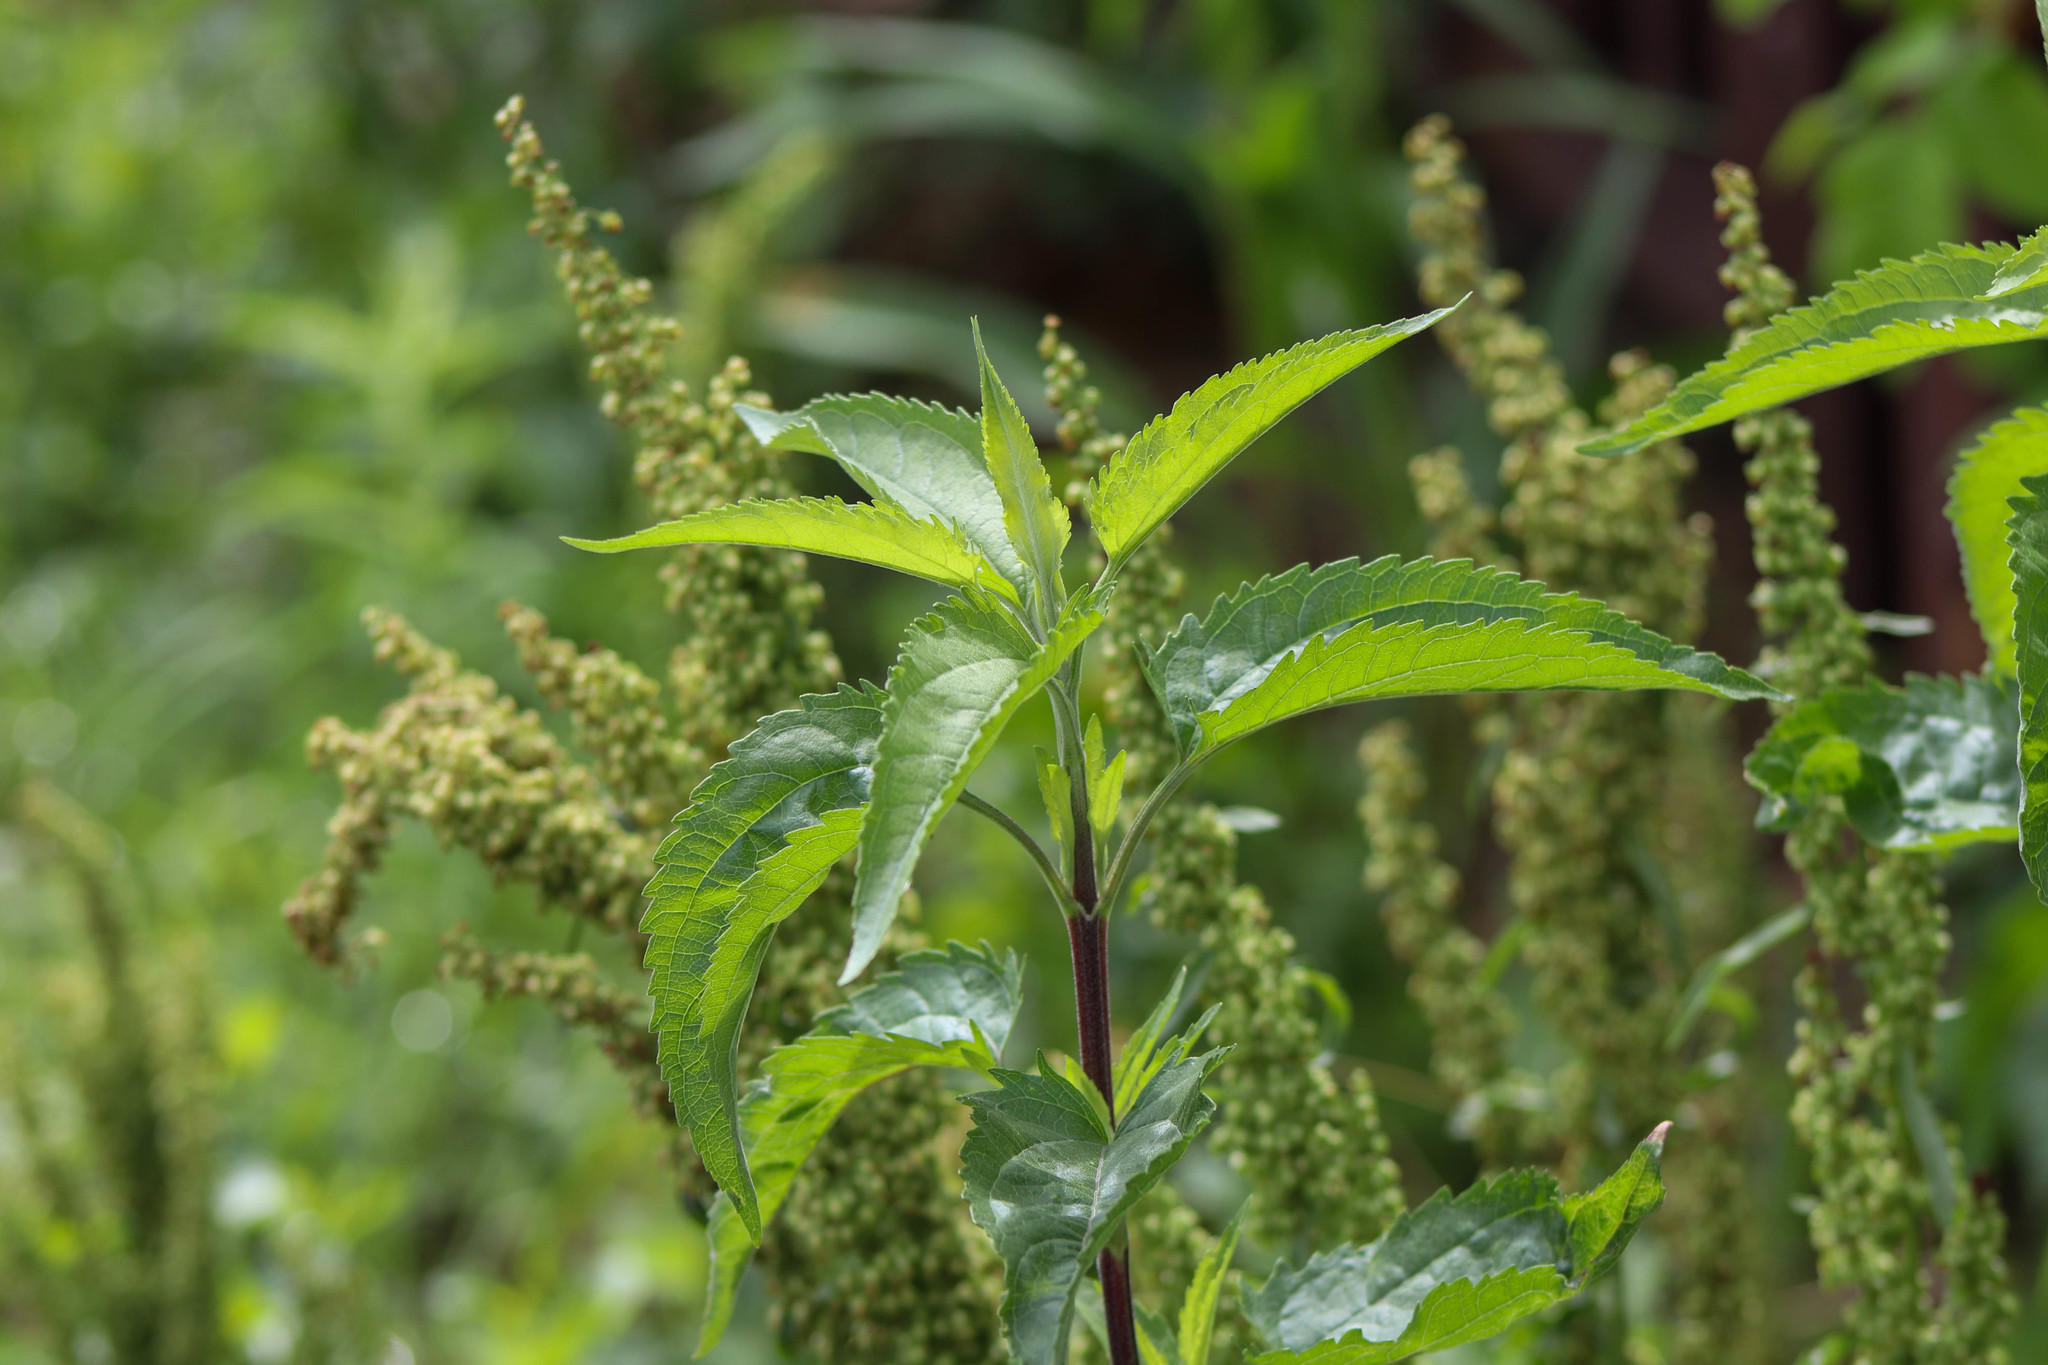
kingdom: Plantae
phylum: Tracheophyta
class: Magnoliopsida
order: Asterales
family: Asteraceae
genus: Eupatorium
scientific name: Eupatorium serotinum
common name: Late boneset
